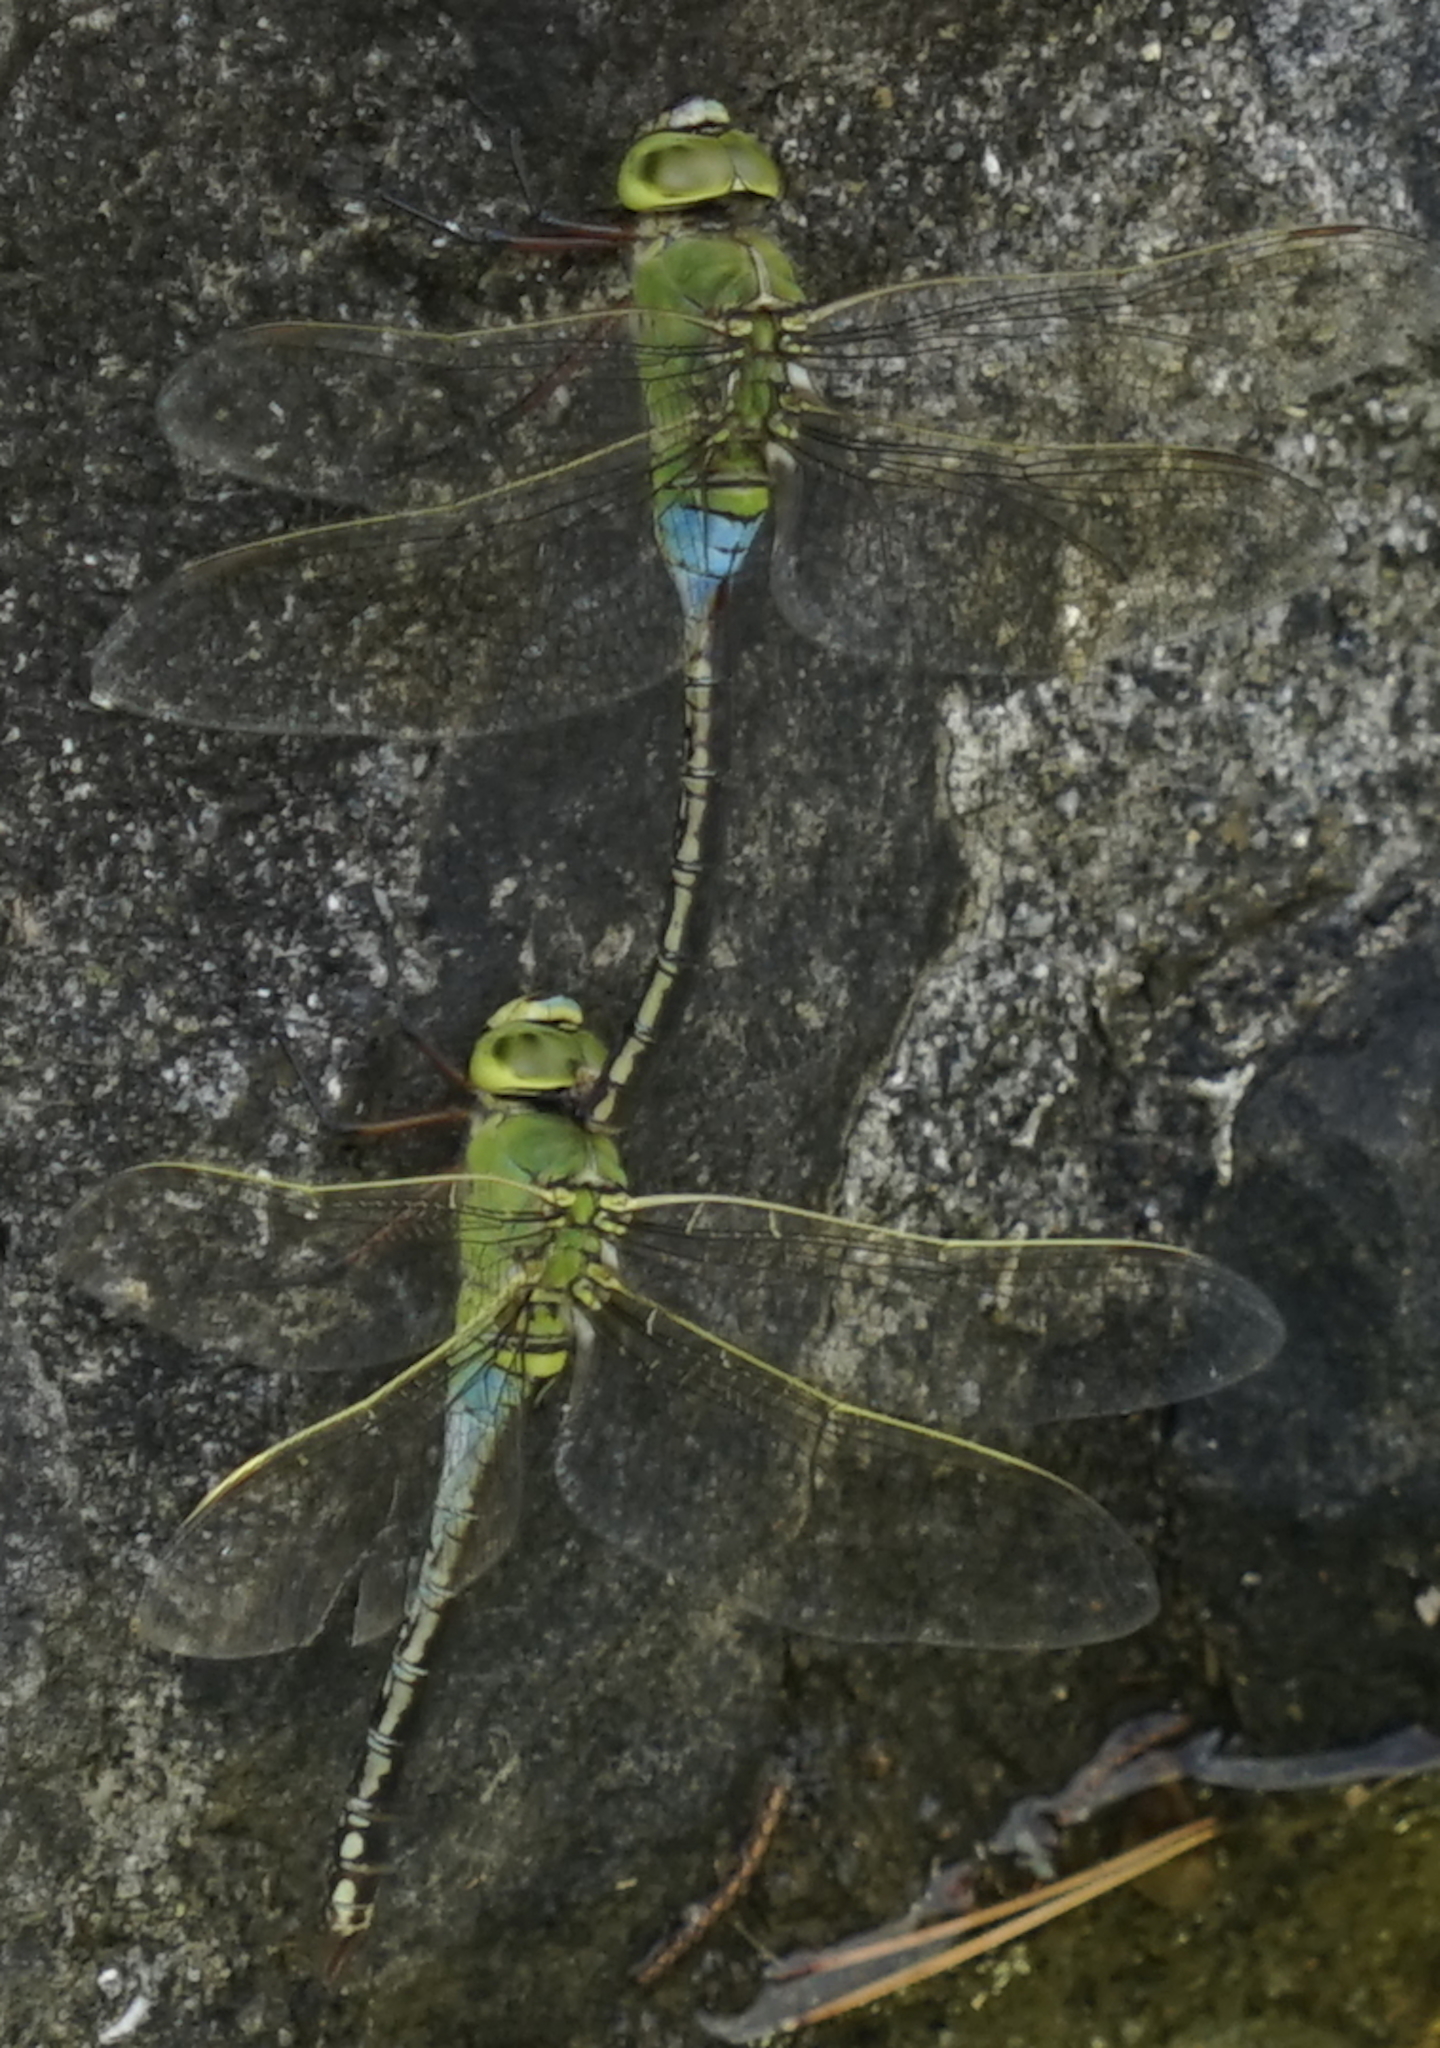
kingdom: Animalia
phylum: Arthropoda
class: Insecta
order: Odonata
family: Aeshnidae
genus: Anax
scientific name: Anax julius
